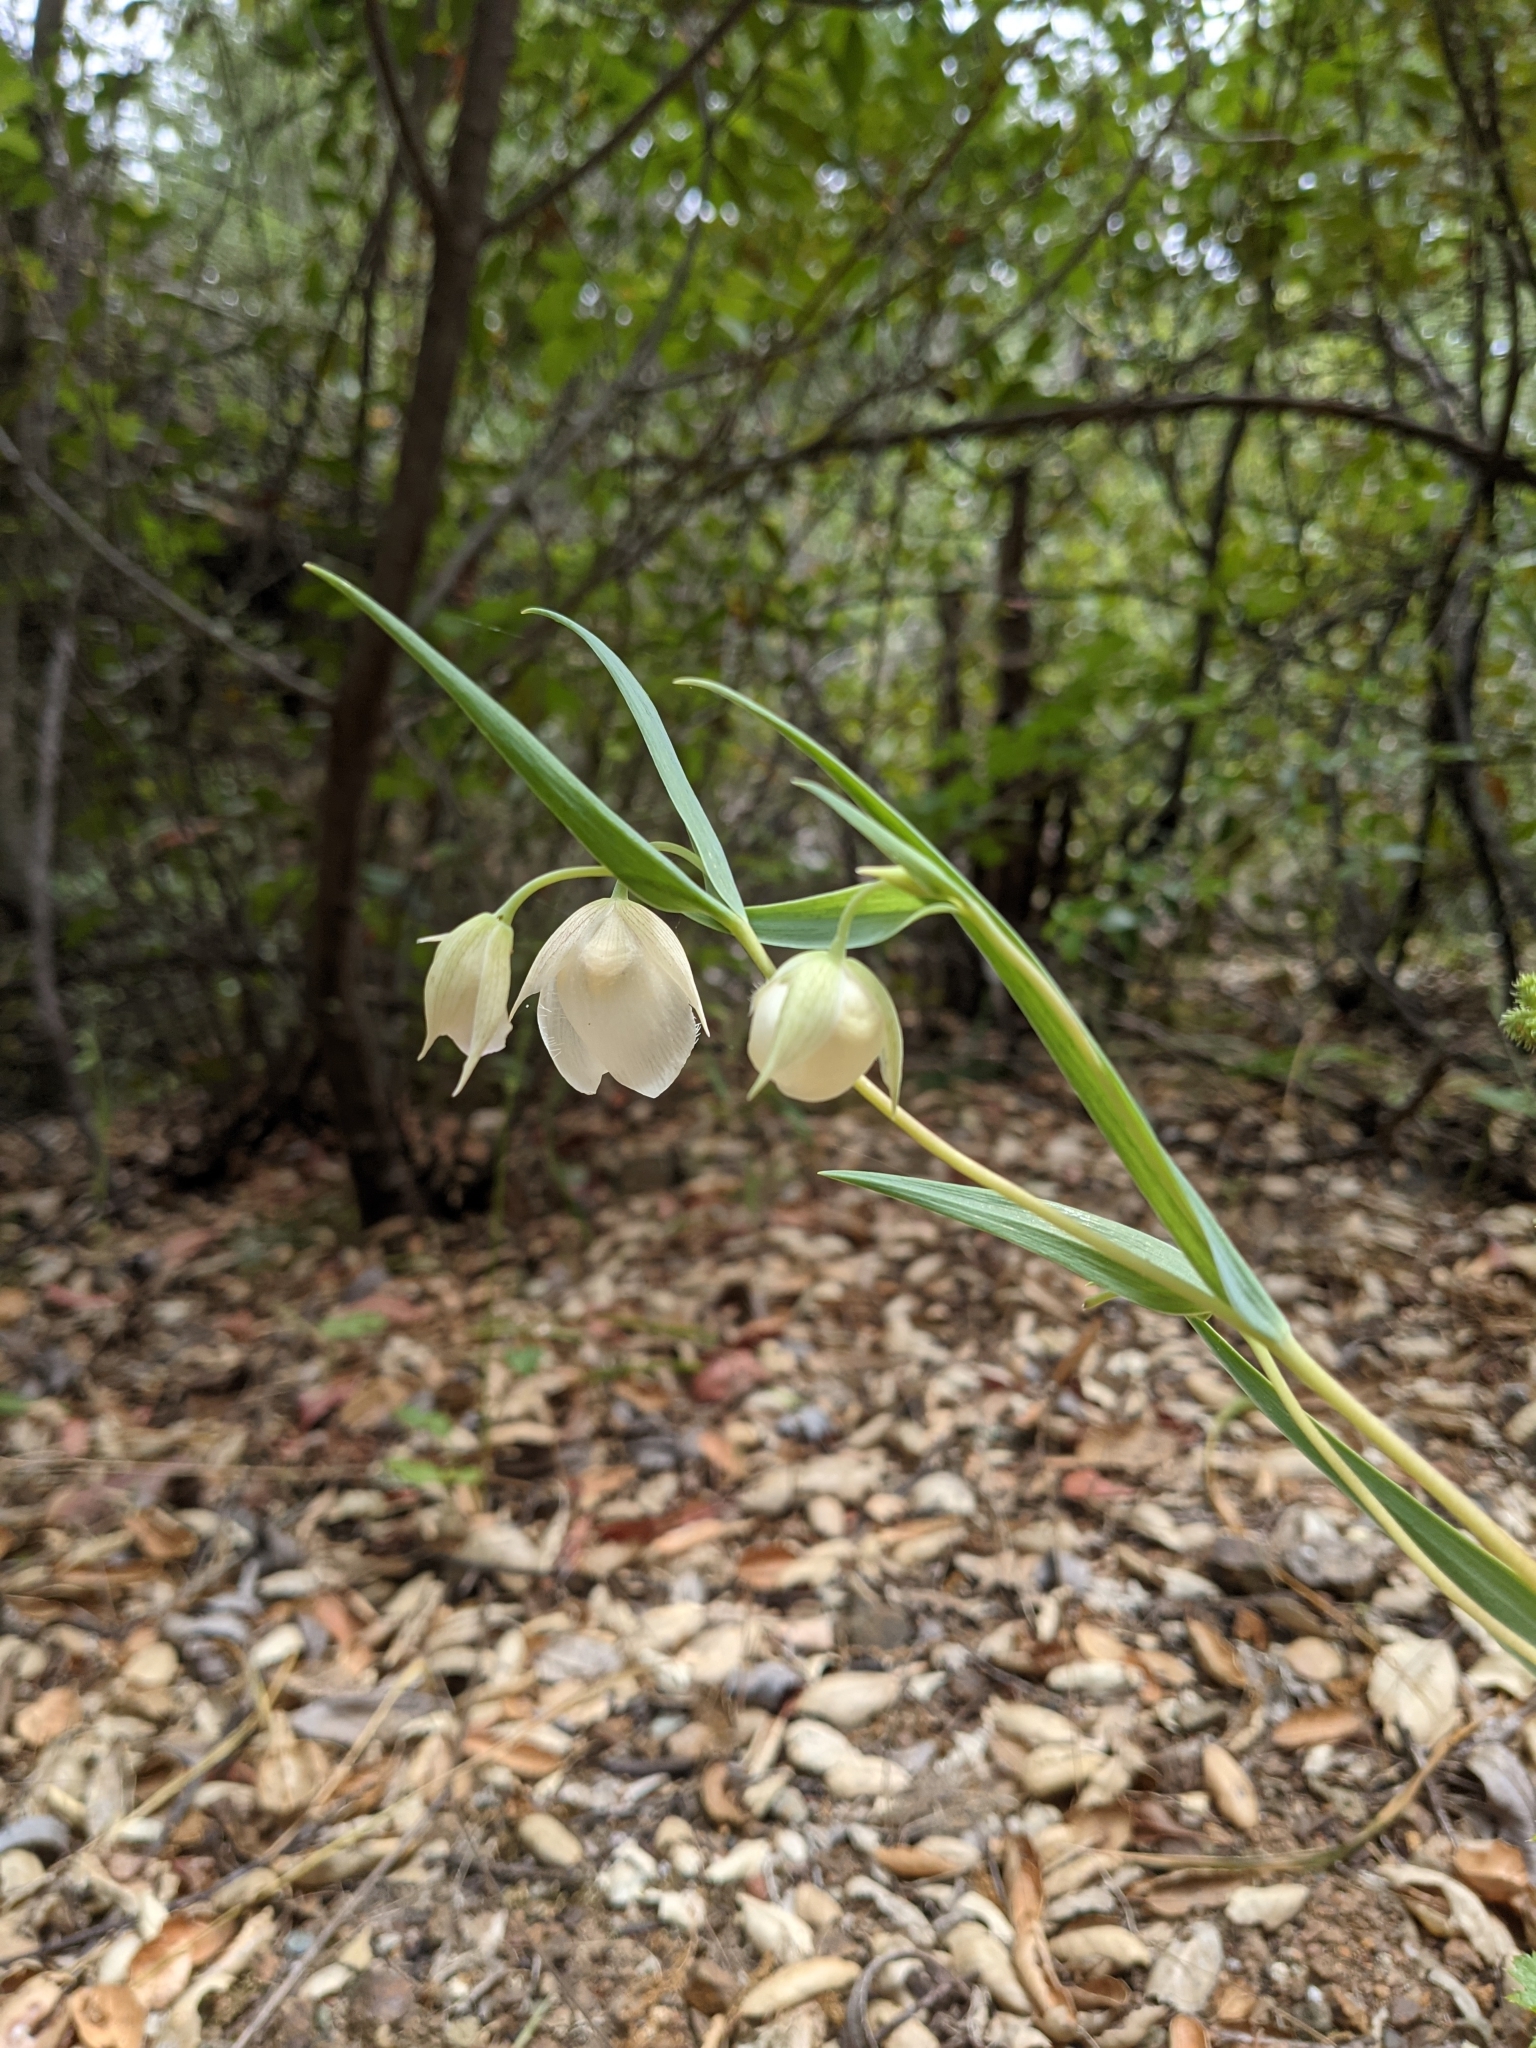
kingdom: Plantae
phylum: Tracheophyta
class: Liliopsida
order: Liliales
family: Liliaceae
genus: Calochortus
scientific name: Calochortus albus
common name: Fairy-lantern
